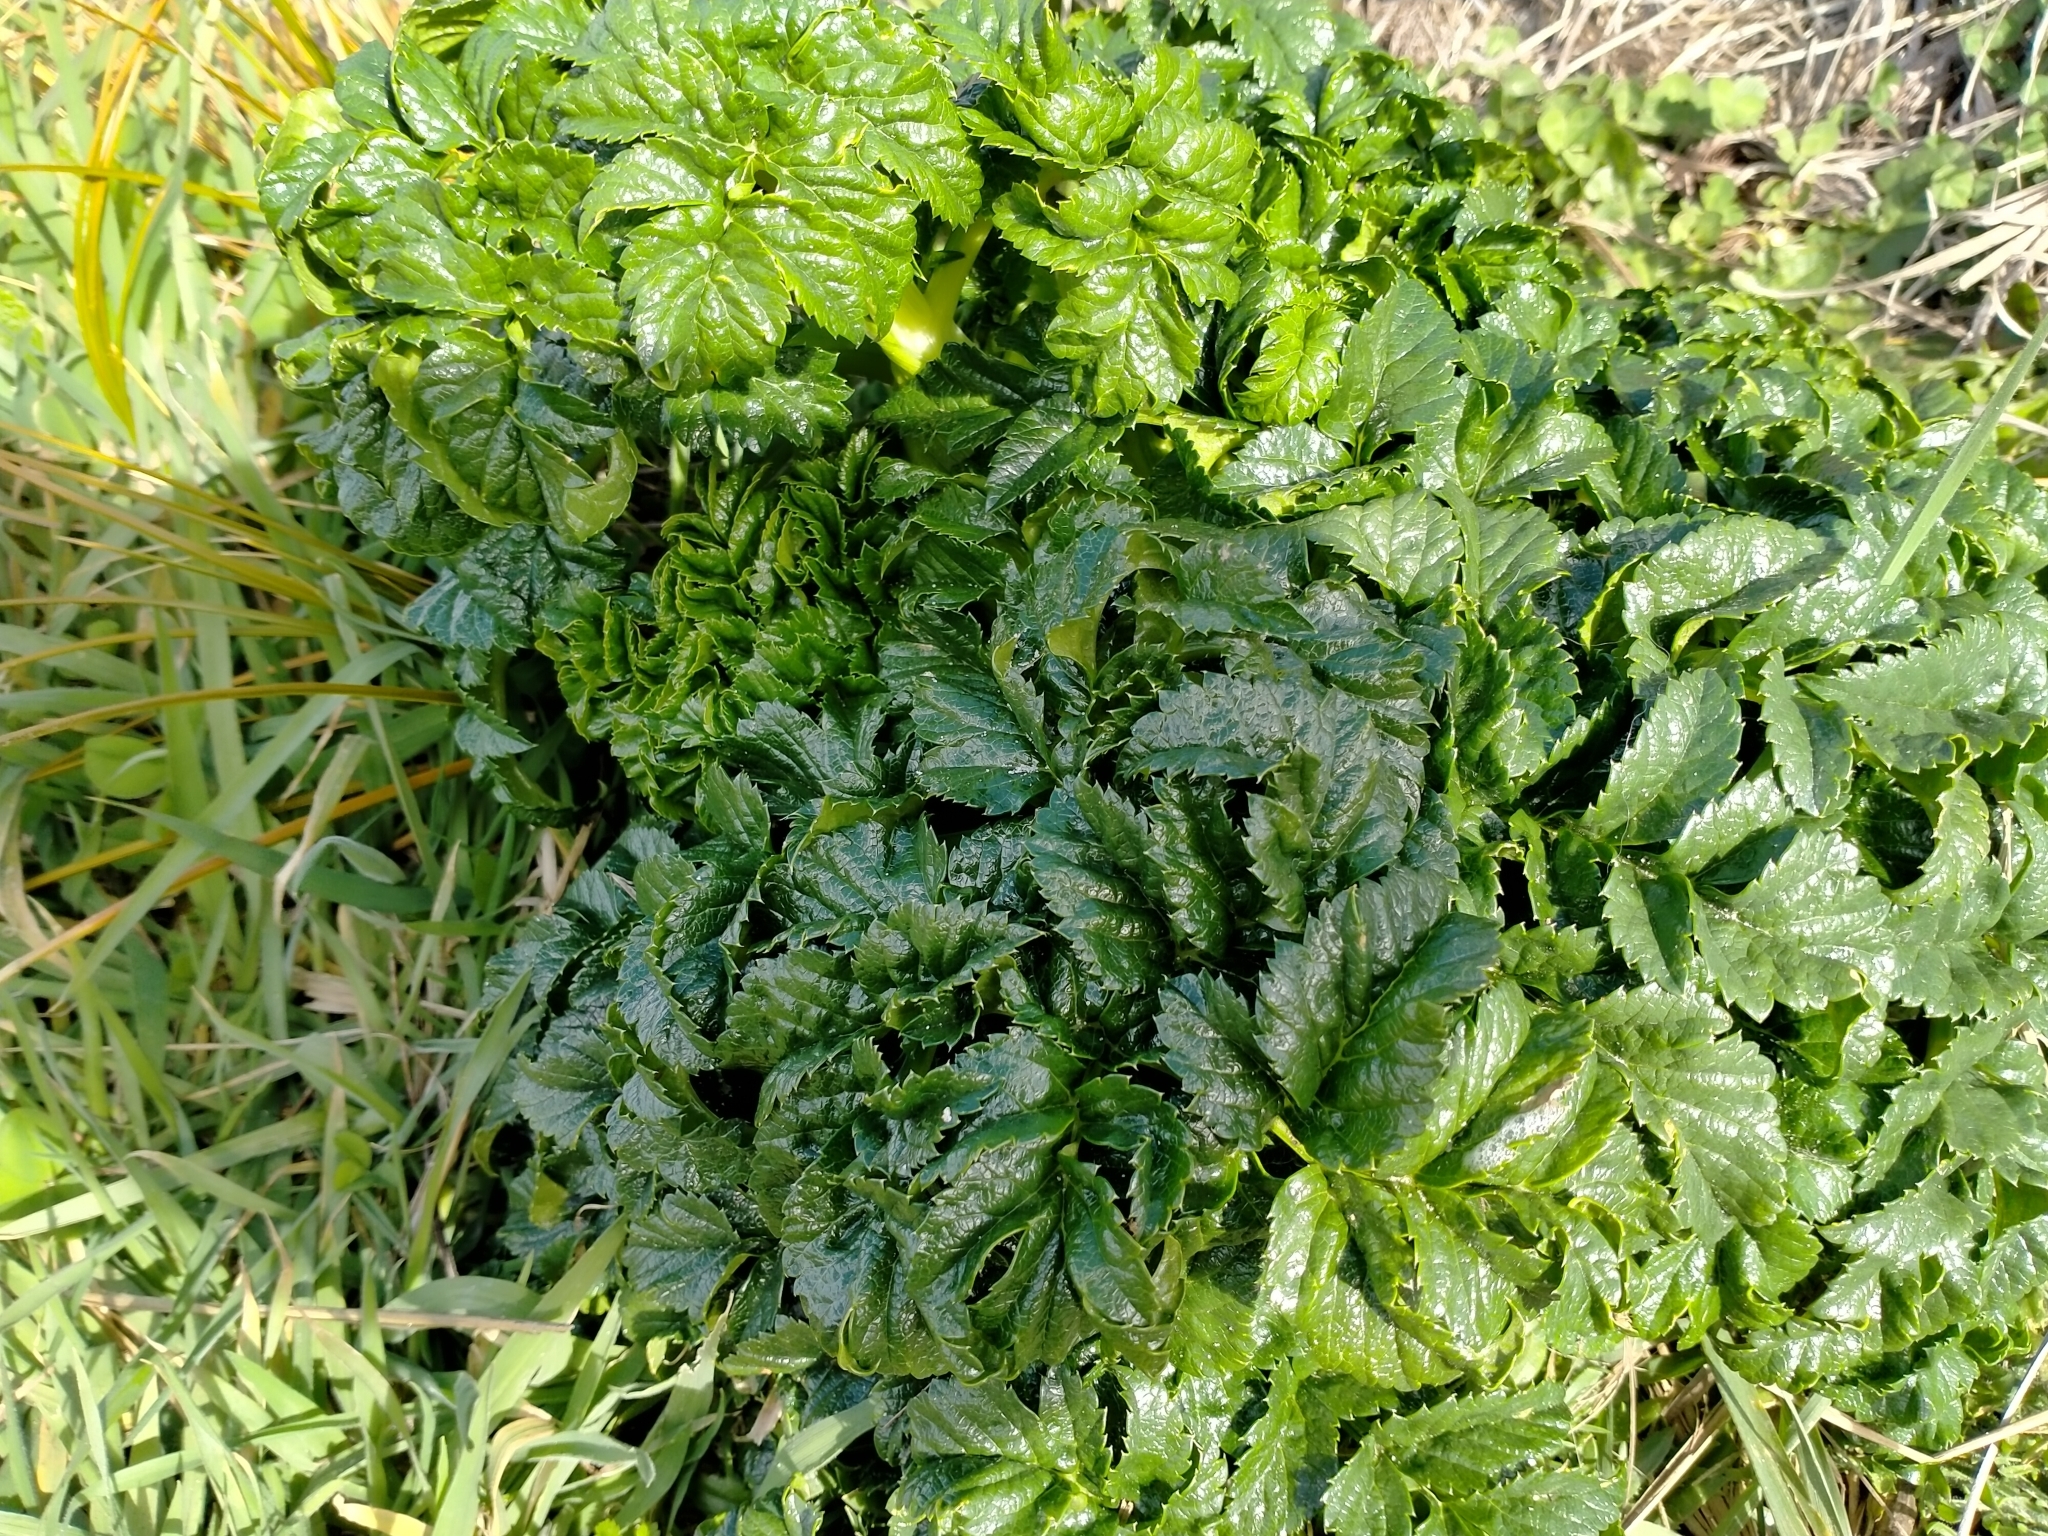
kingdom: Plantae
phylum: Tracheophyta
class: Magnoliopsida
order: Apiales
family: Apiaceae
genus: Angelica
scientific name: Angelica pachycarpa
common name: Portuguese angelica
